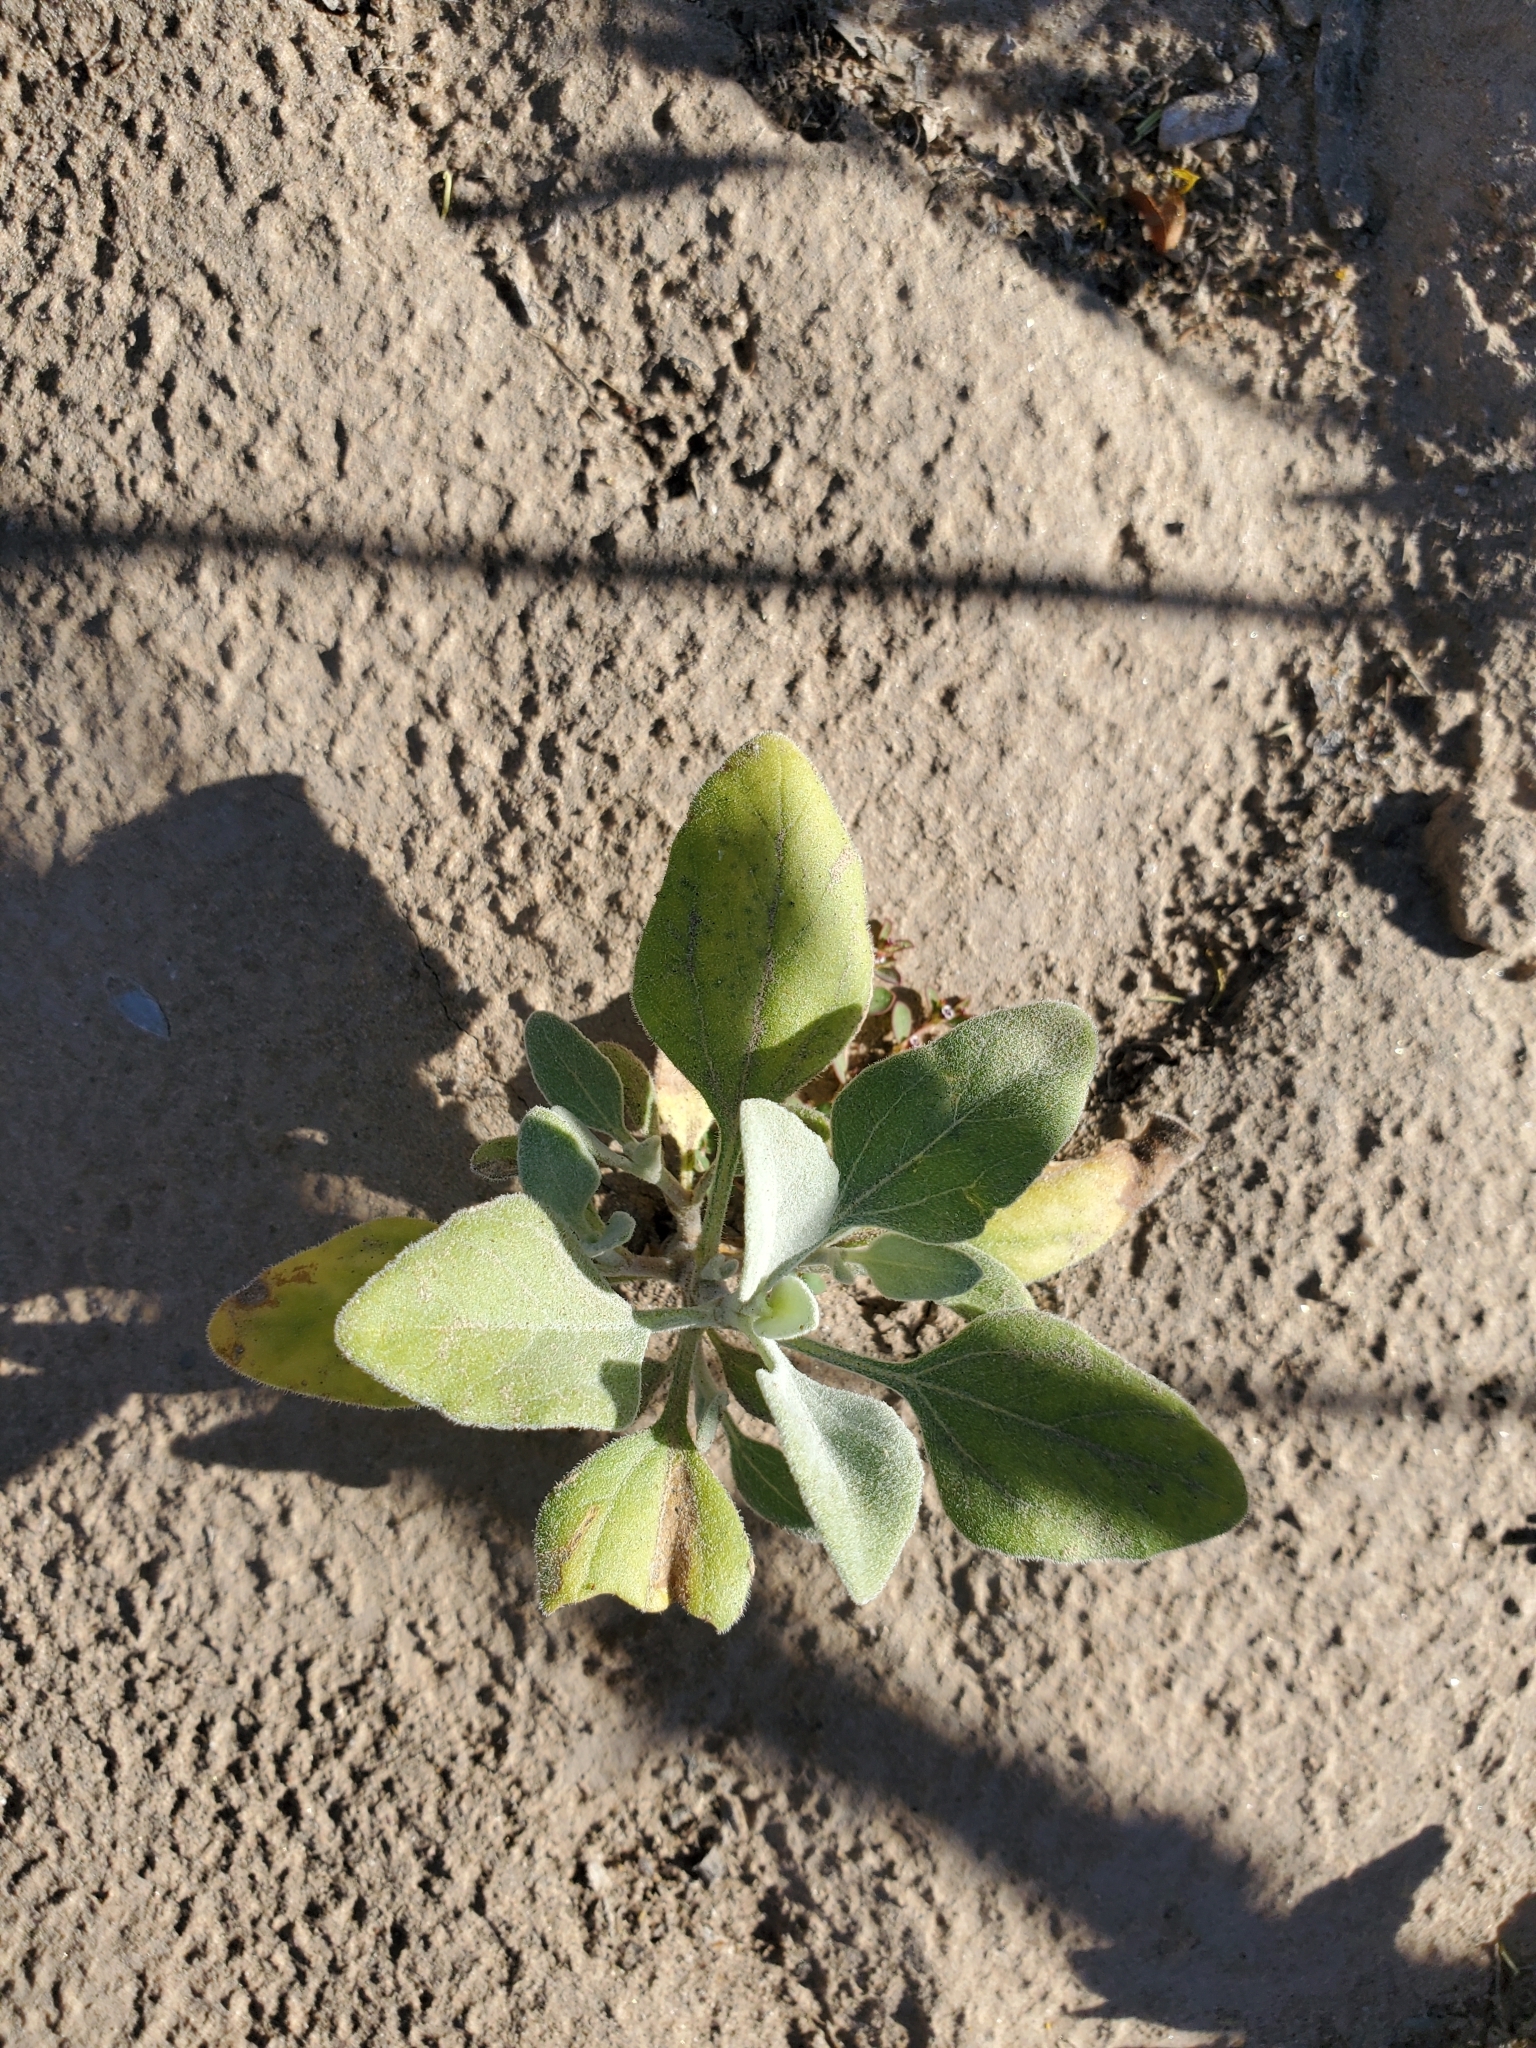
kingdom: Plantae
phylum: Tracheophyta
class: Magnoliopsida
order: Asterales
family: Asteraceae
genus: Encelia
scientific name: Encelia farinosa
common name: Brittlebush
